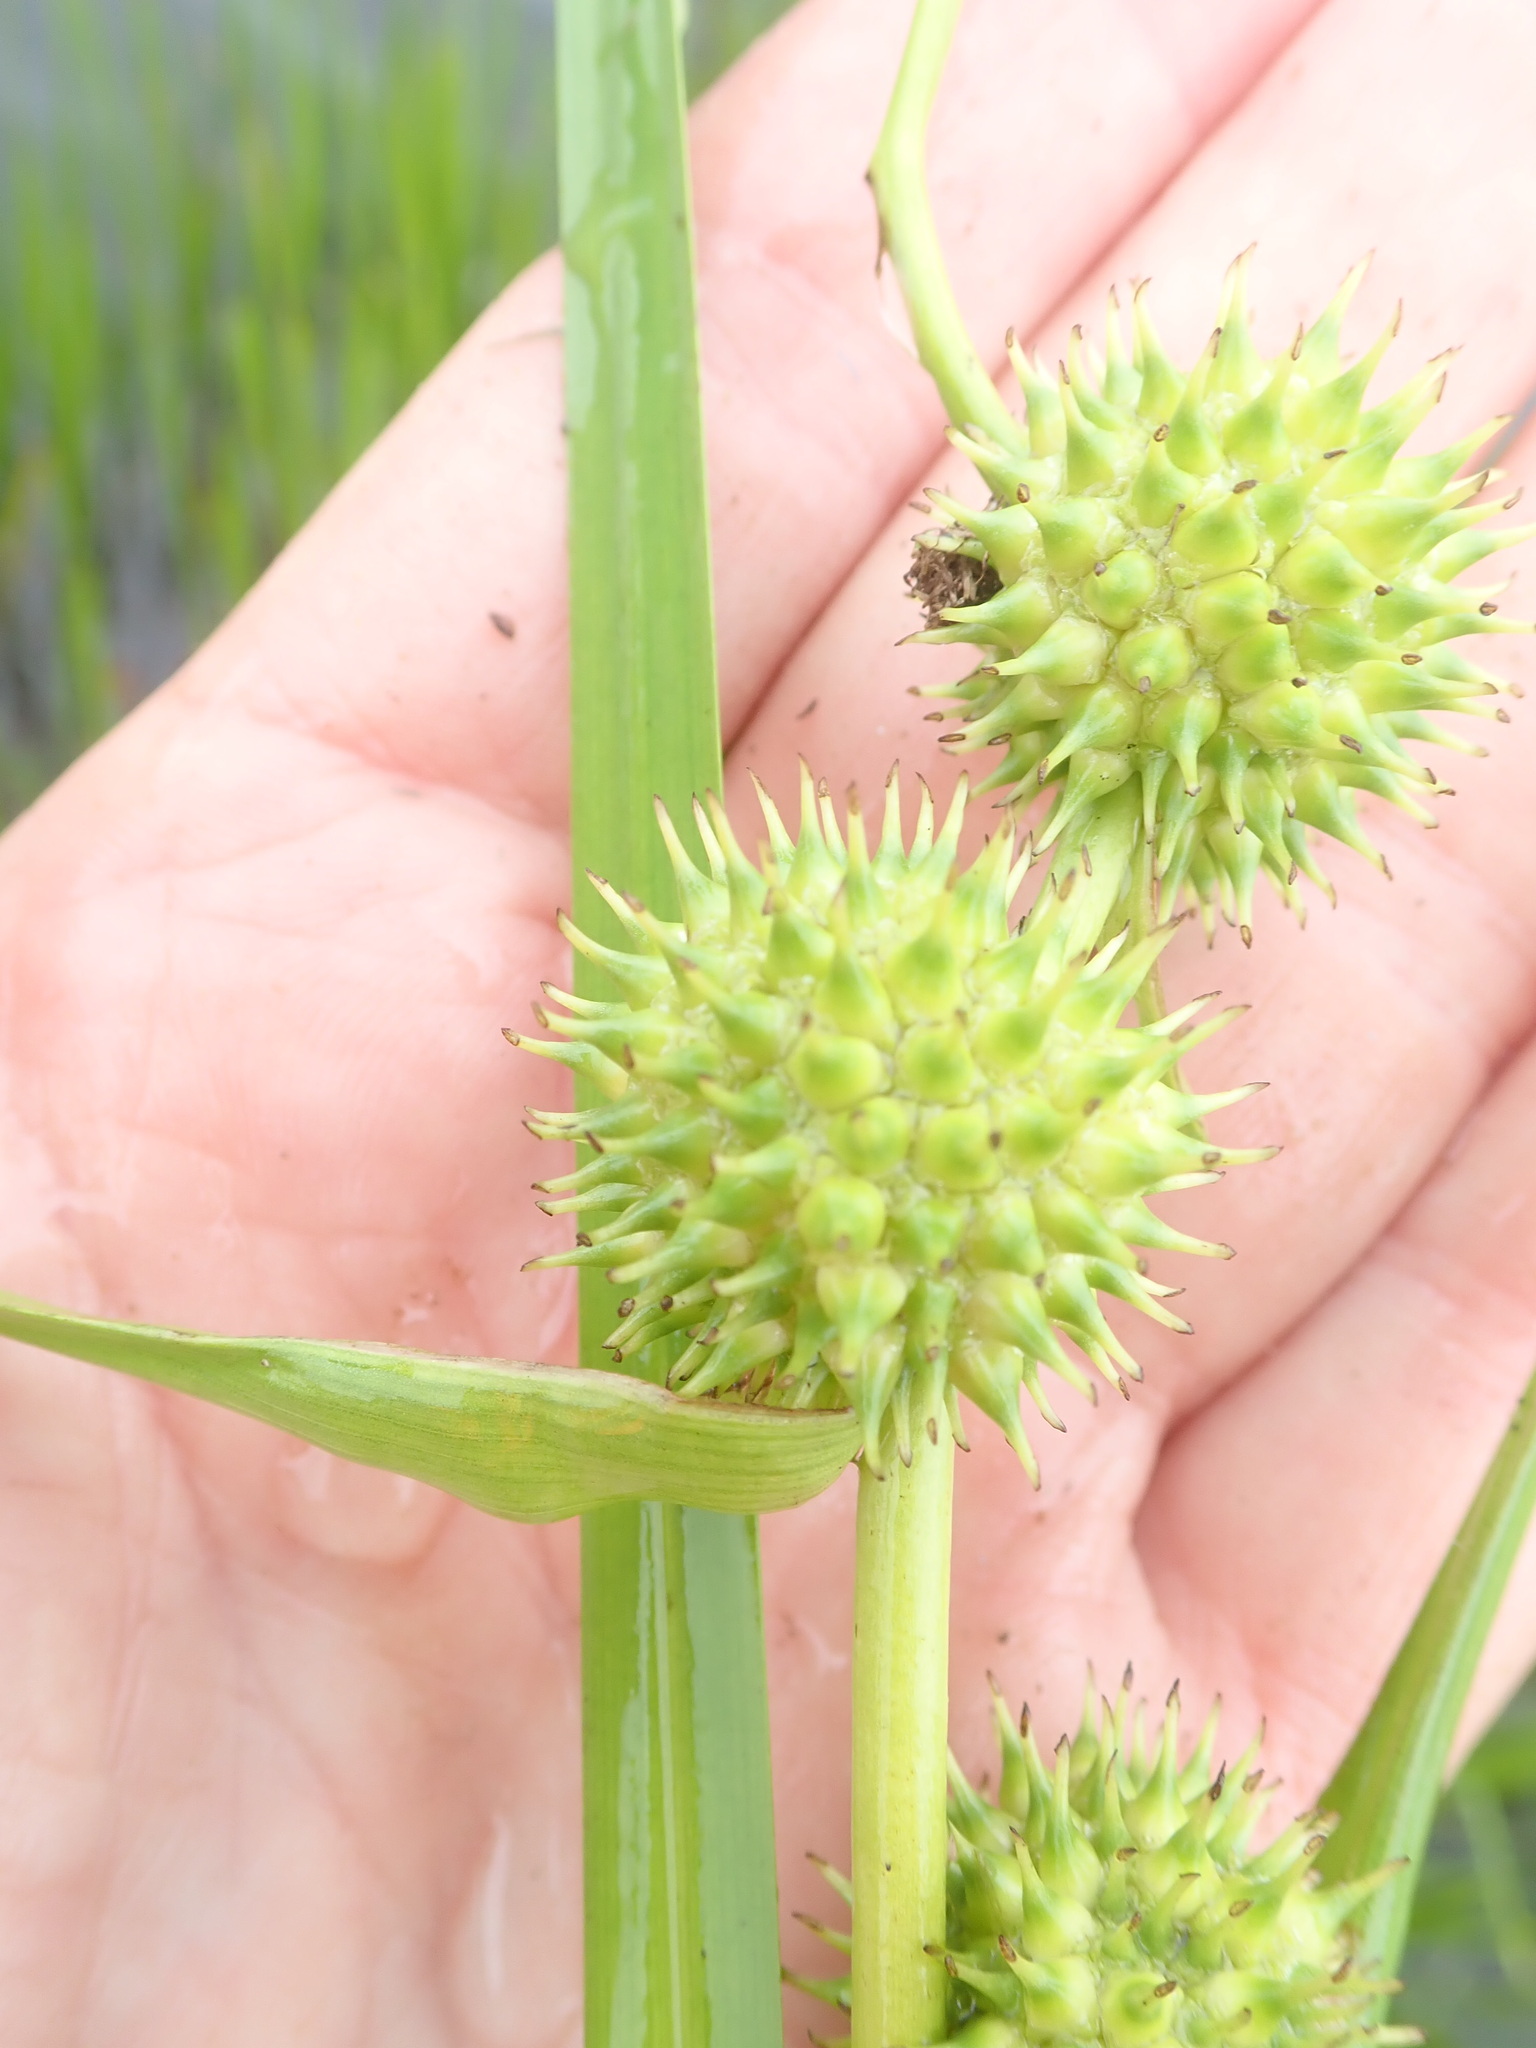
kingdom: Plantae
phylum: Tracheophyta
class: Liliopsida
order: Poales
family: Typhaceae
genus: Sparganium
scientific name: Sparganium americanum
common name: American burreed
